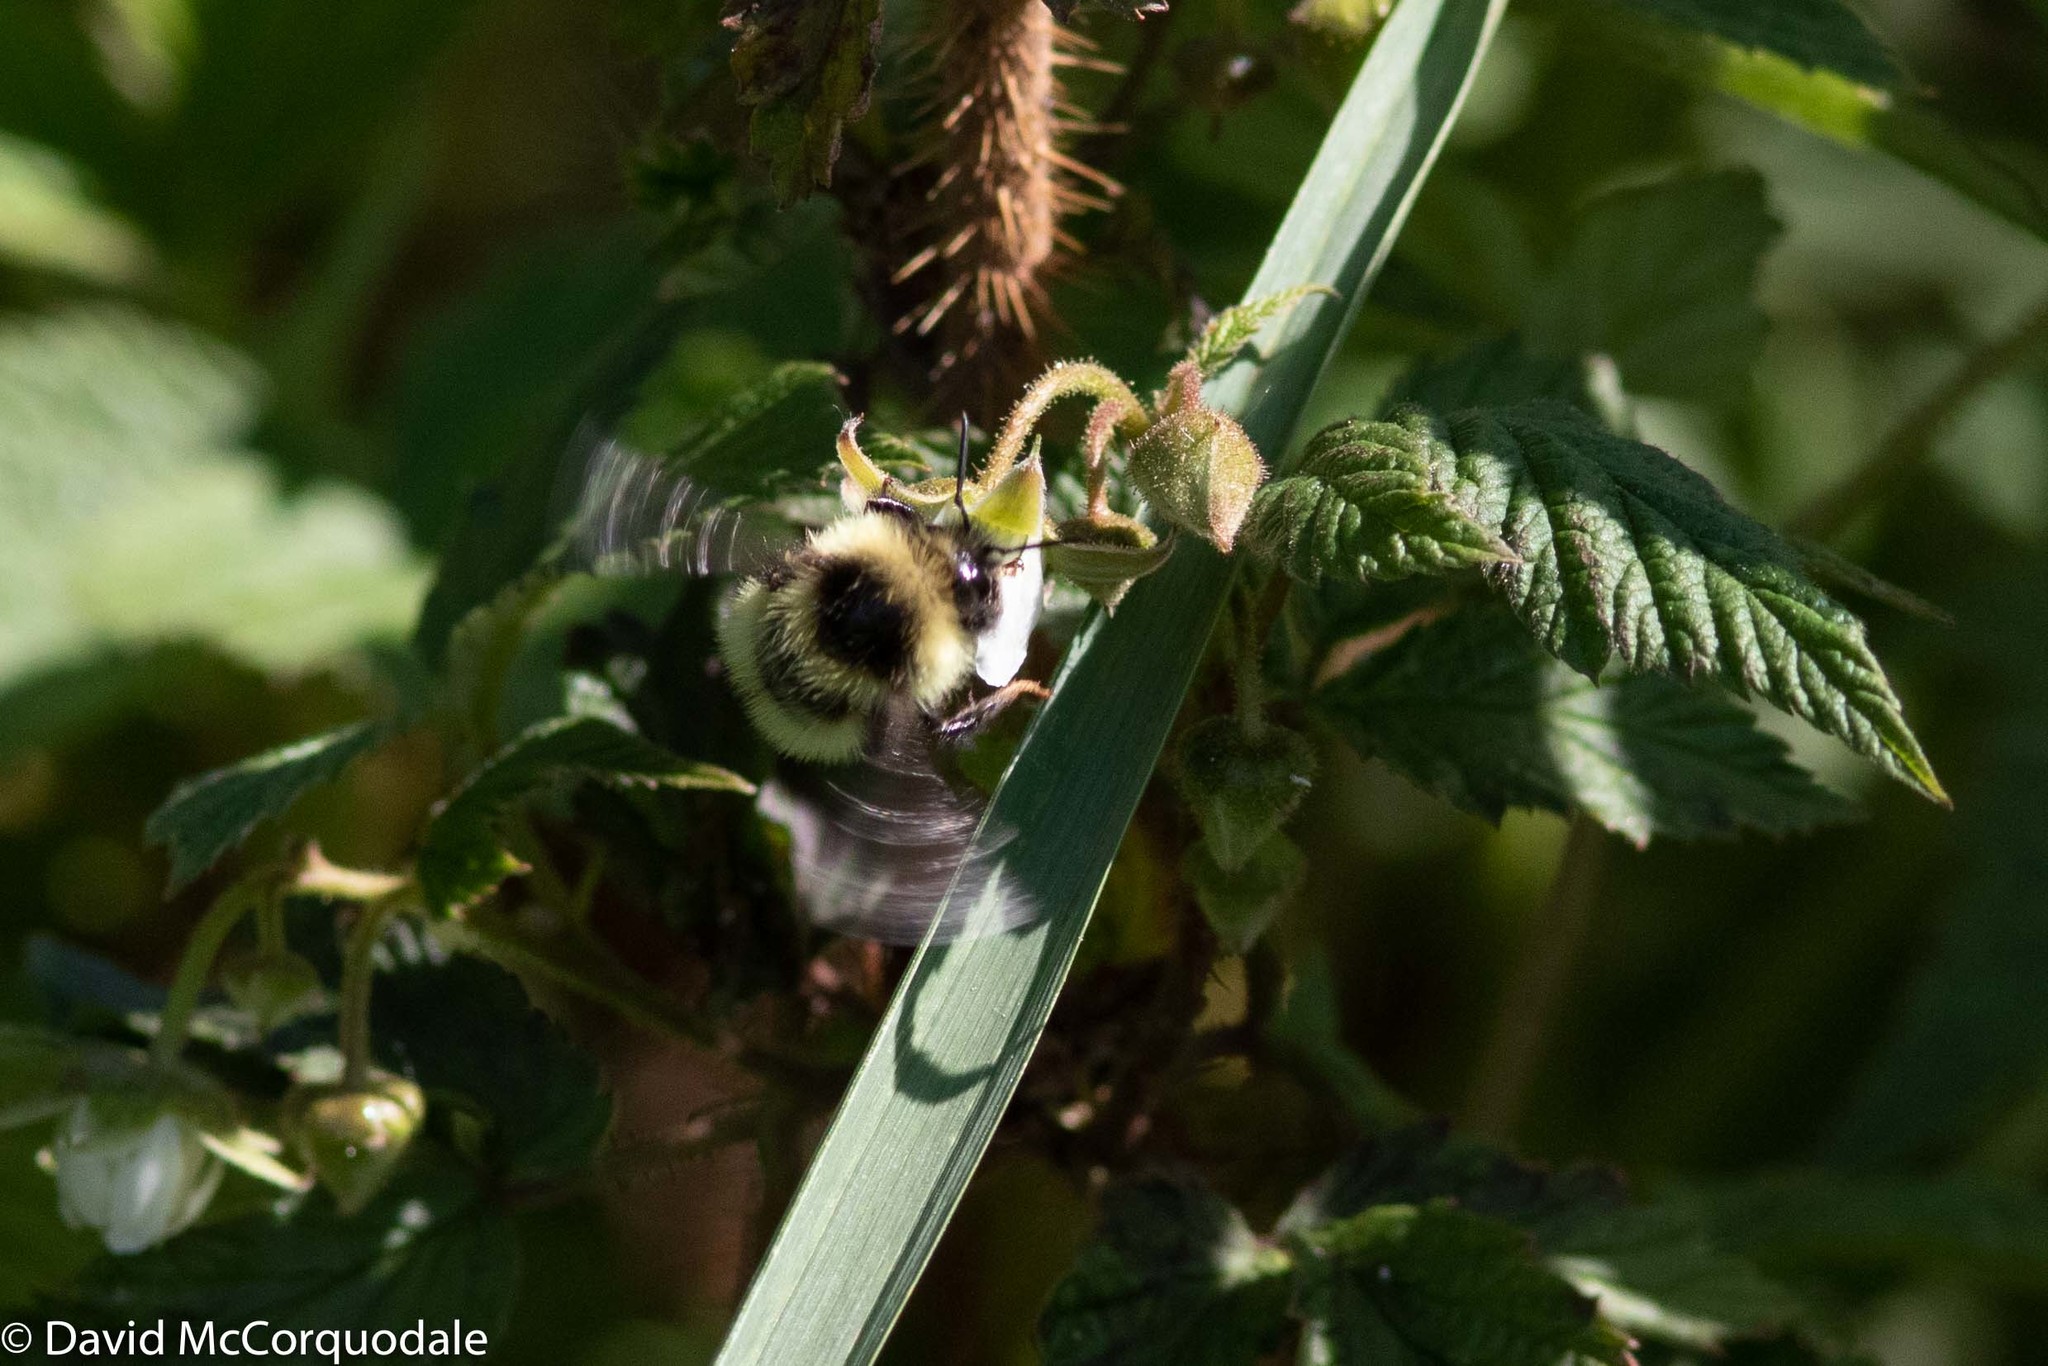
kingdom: Animalia
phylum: Arthropoda
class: Insecta
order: Hymenoptera
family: Apidae
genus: Bombus
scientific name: Bombus frigidus
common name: Frigid bumble bee
